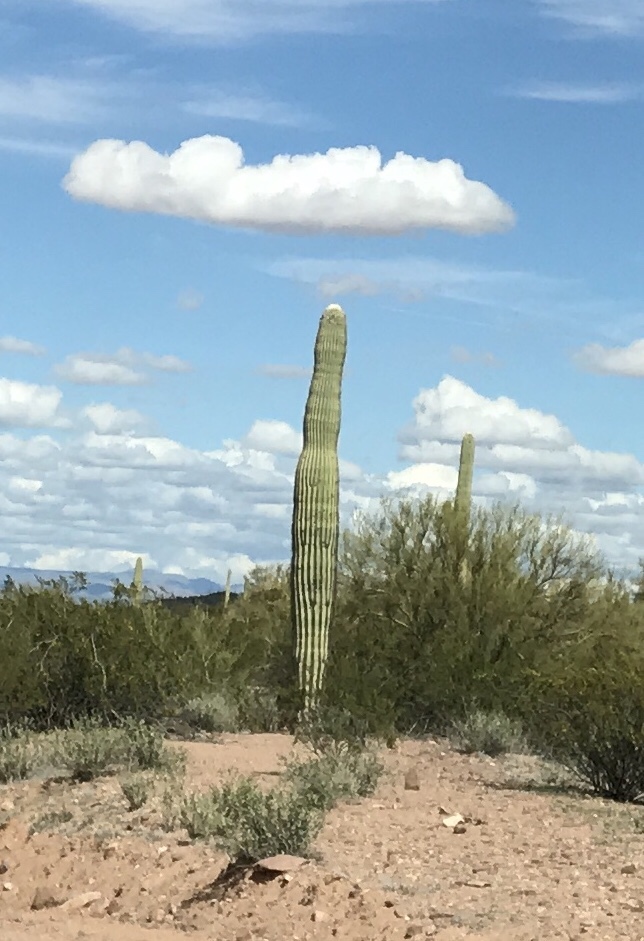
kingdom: Plantae
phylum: Tracheophyta
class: Magnoliopsida
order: Caryophyllales
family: Cactaceae
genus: Carnegiea
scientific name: Carnegiea gigantea
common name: Saguaro
